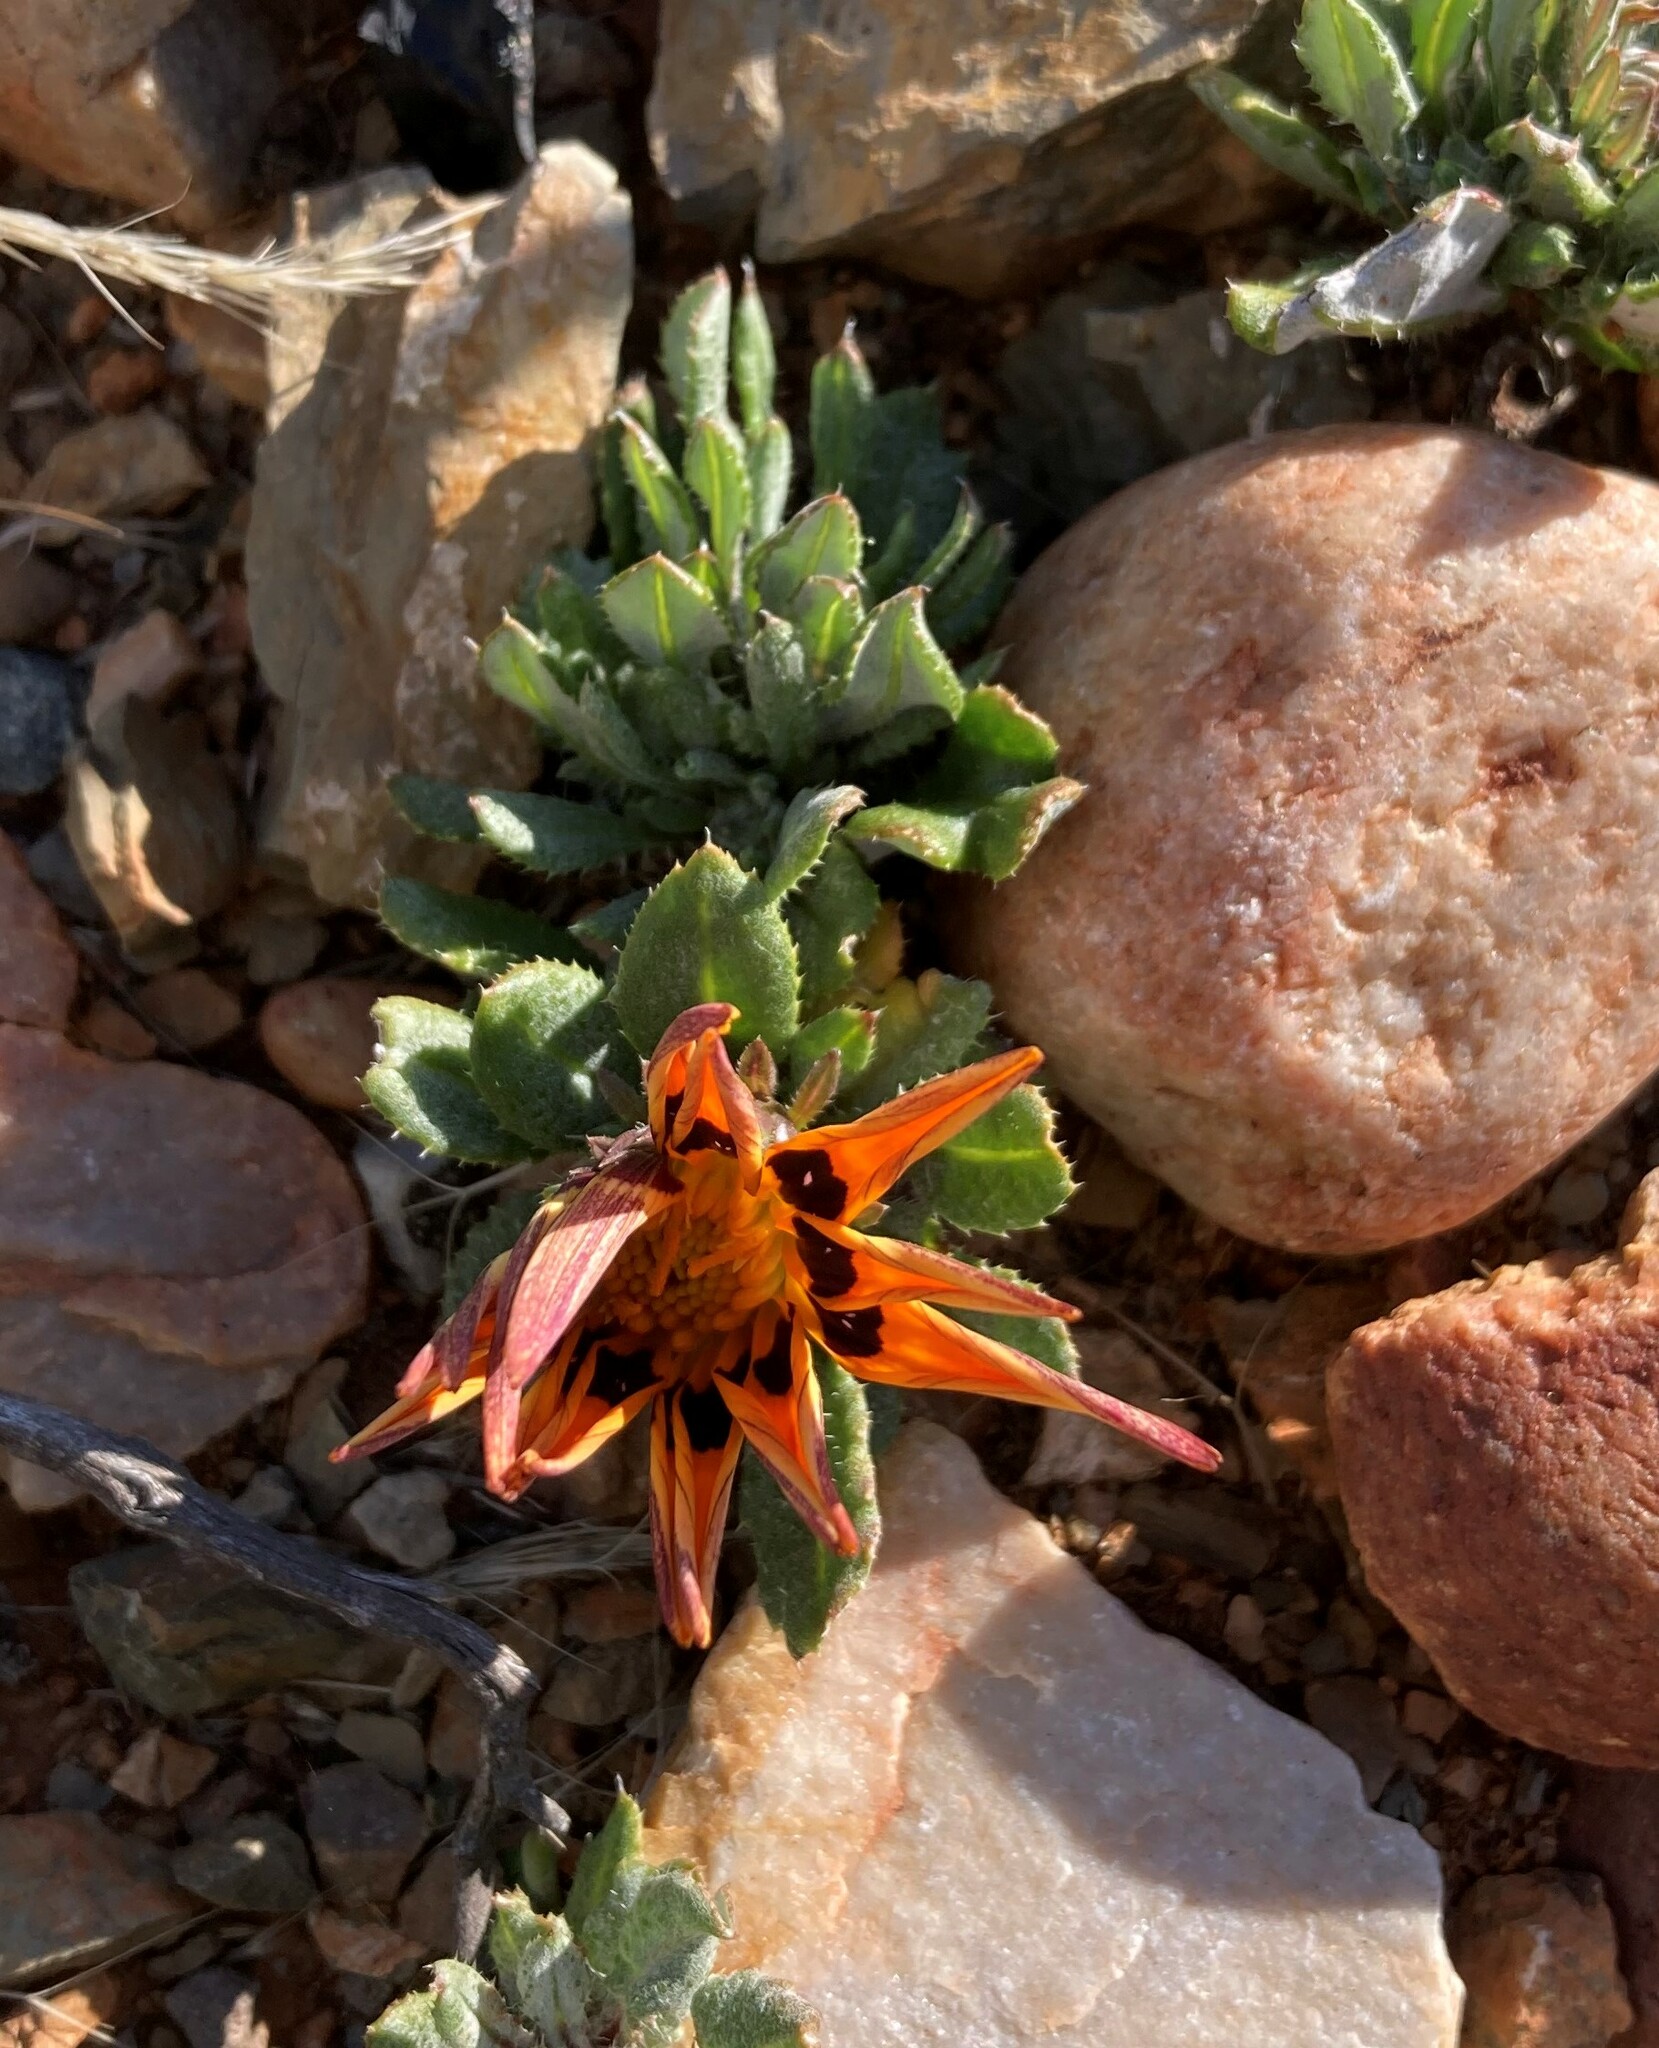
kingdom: Plantae
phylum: Tracheophyta
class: Magnoliopsida
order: Asterales
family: Asteraceae
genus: Gazania
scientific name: Gazania heterochaeta
